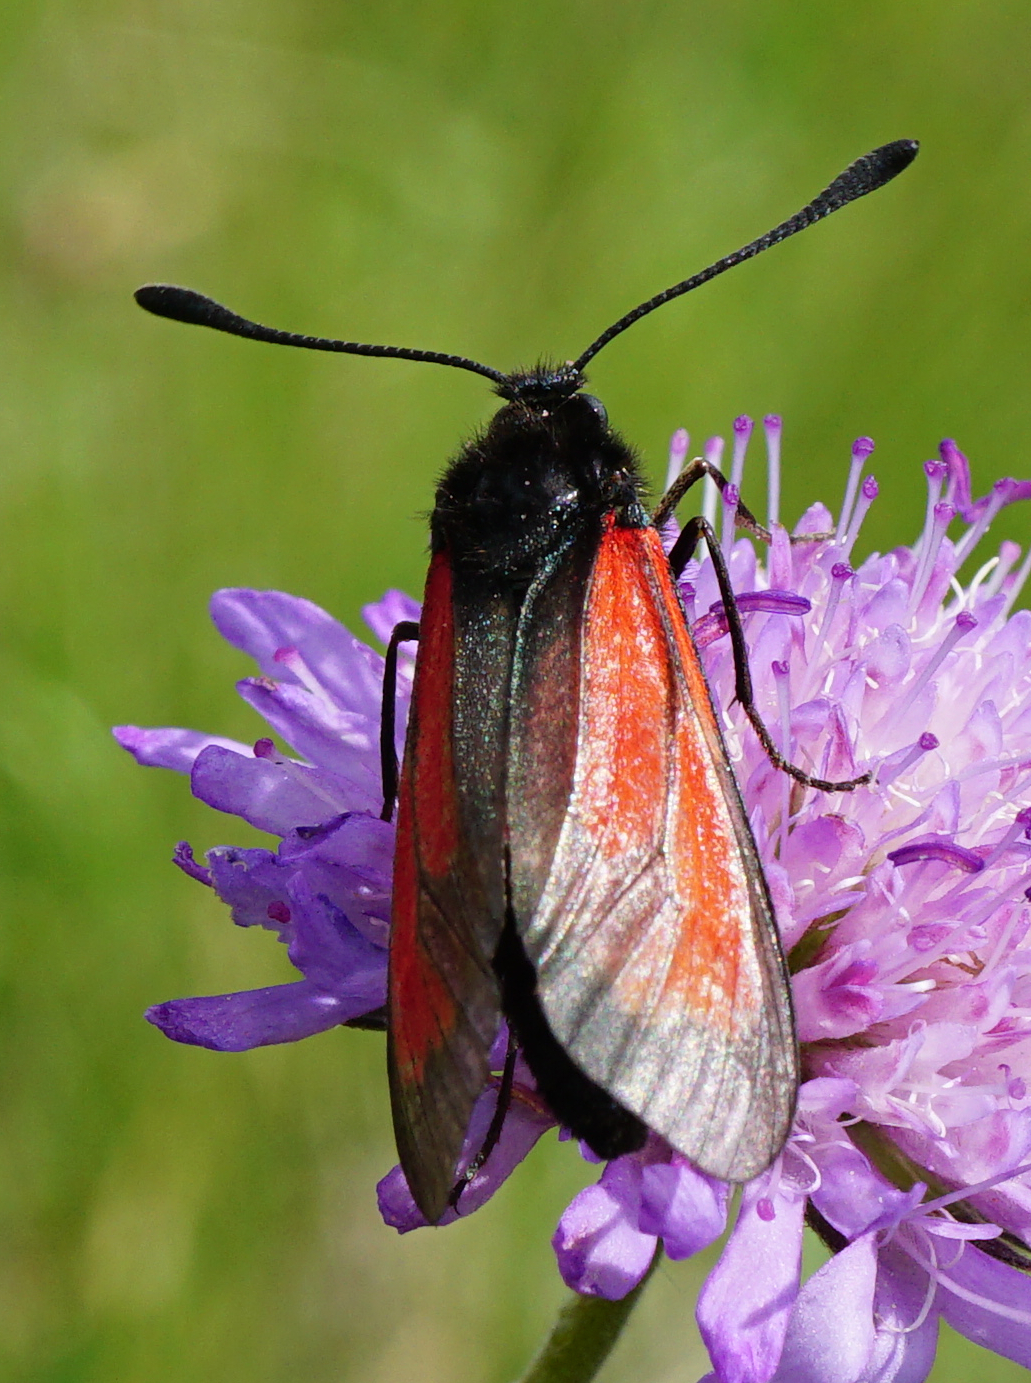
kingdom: Animalia
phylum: Arthropoda
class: Insecta
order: Lepidoptera
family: Zygaenidae
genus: Zygaena
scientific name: Zygaena
